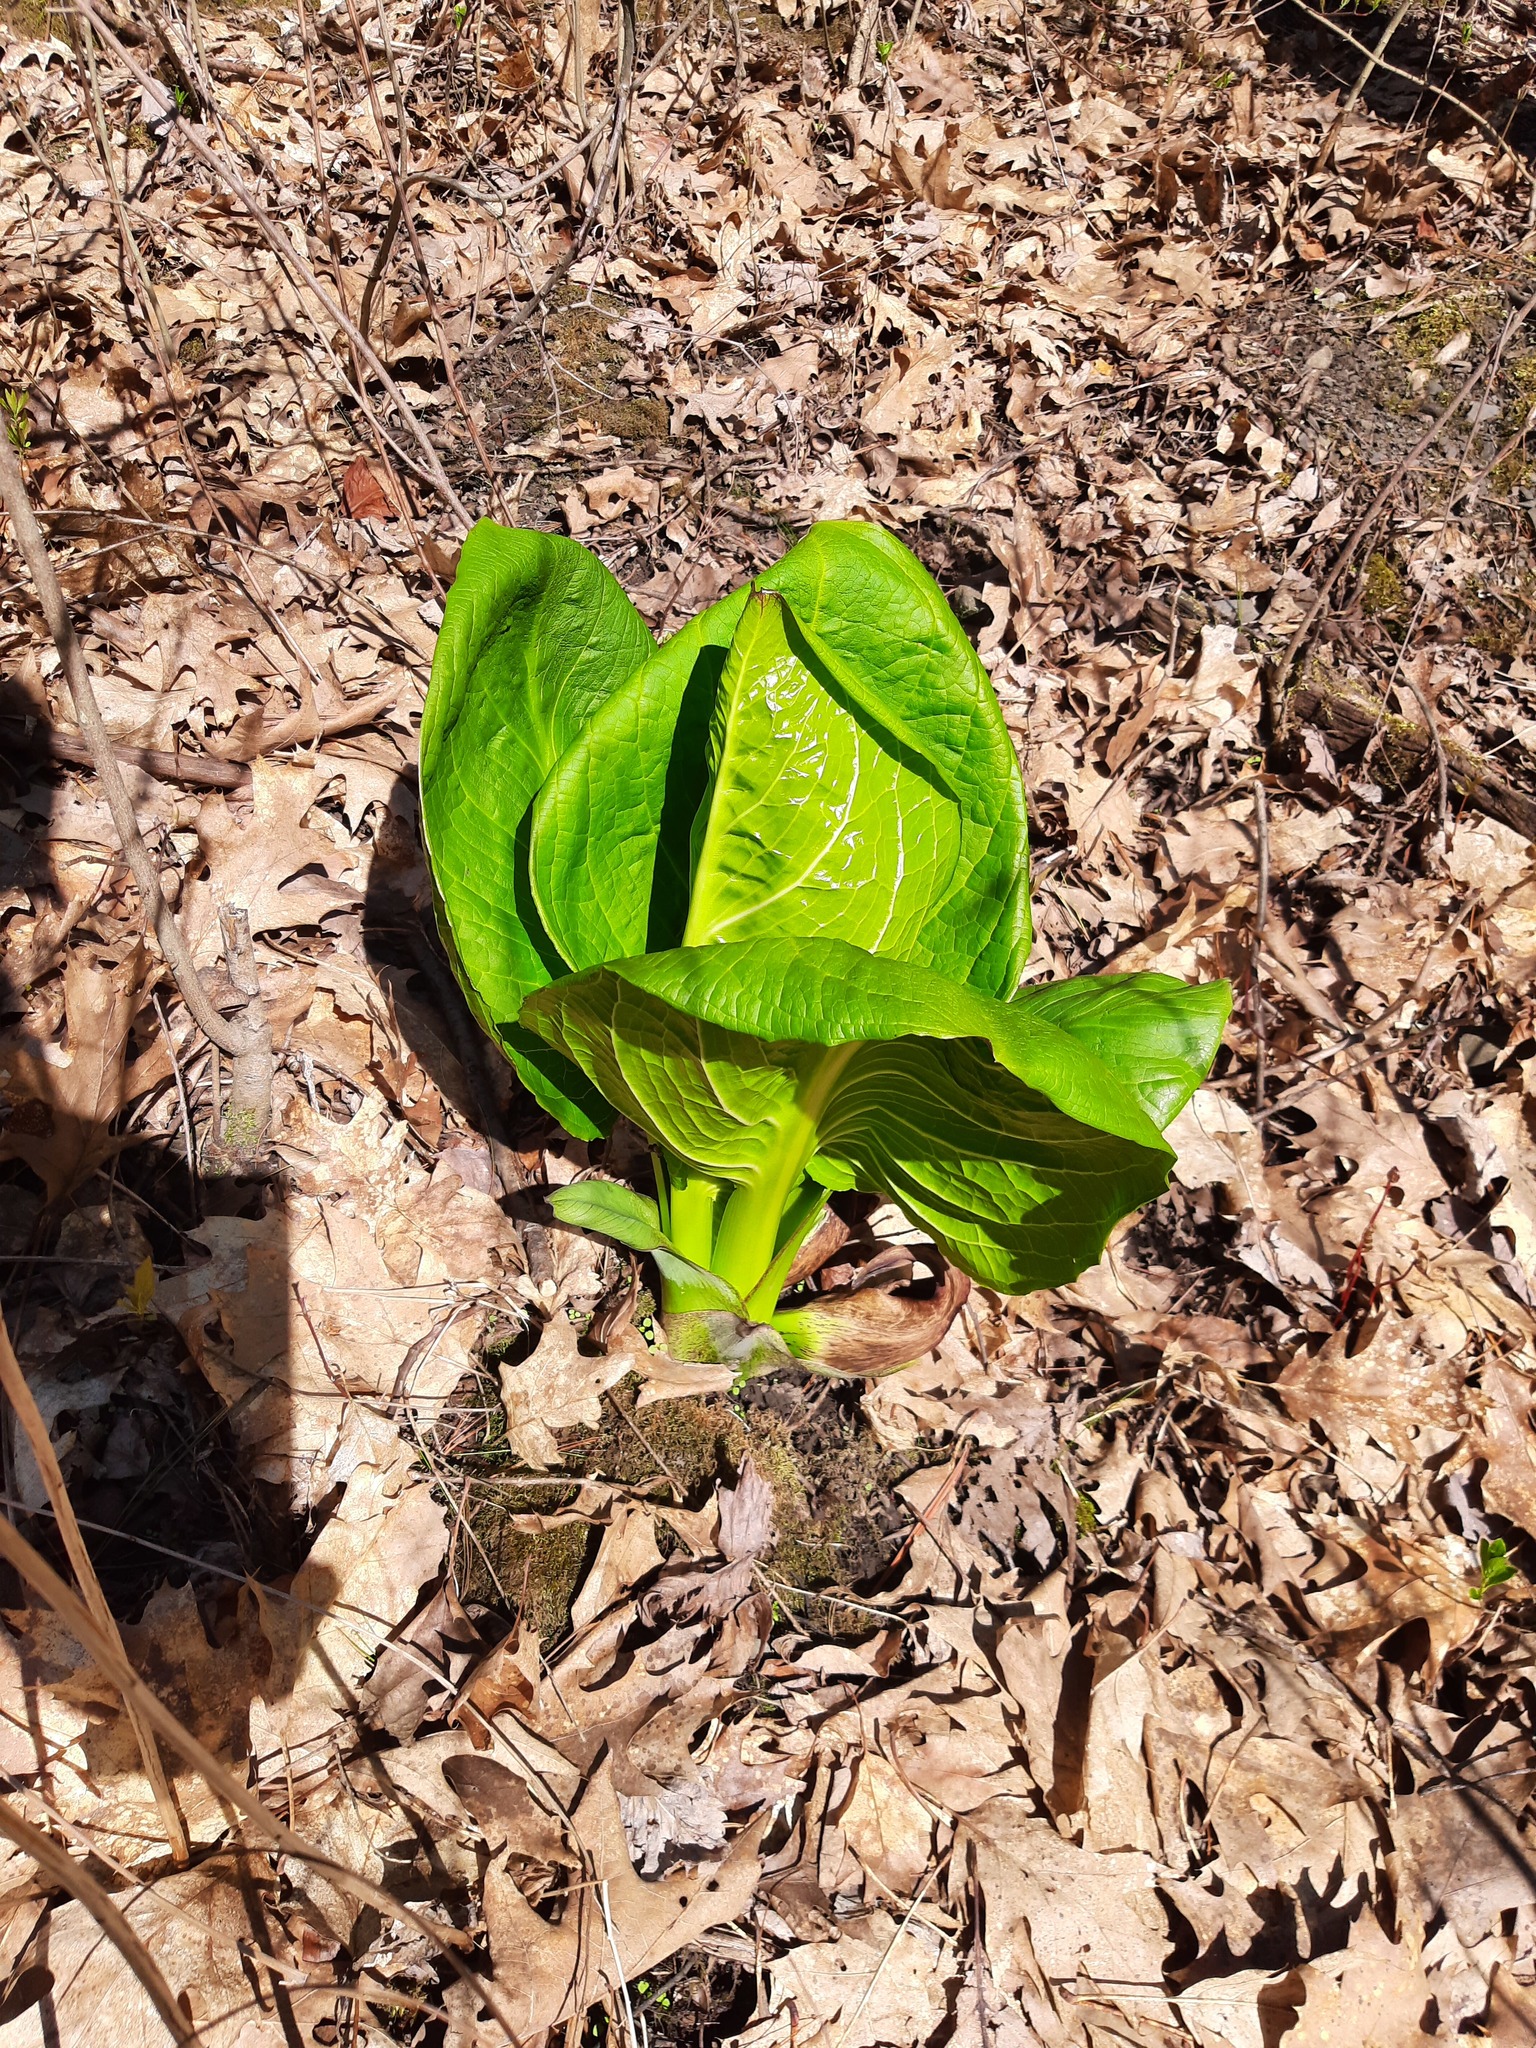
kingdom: Plantae
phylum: Tracheophyta
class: Liliopsida
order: Alismatales
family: Araceae
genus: Symplocarpus
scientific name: Symplocarpus foetidus
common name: Eastern skunk cabbage
